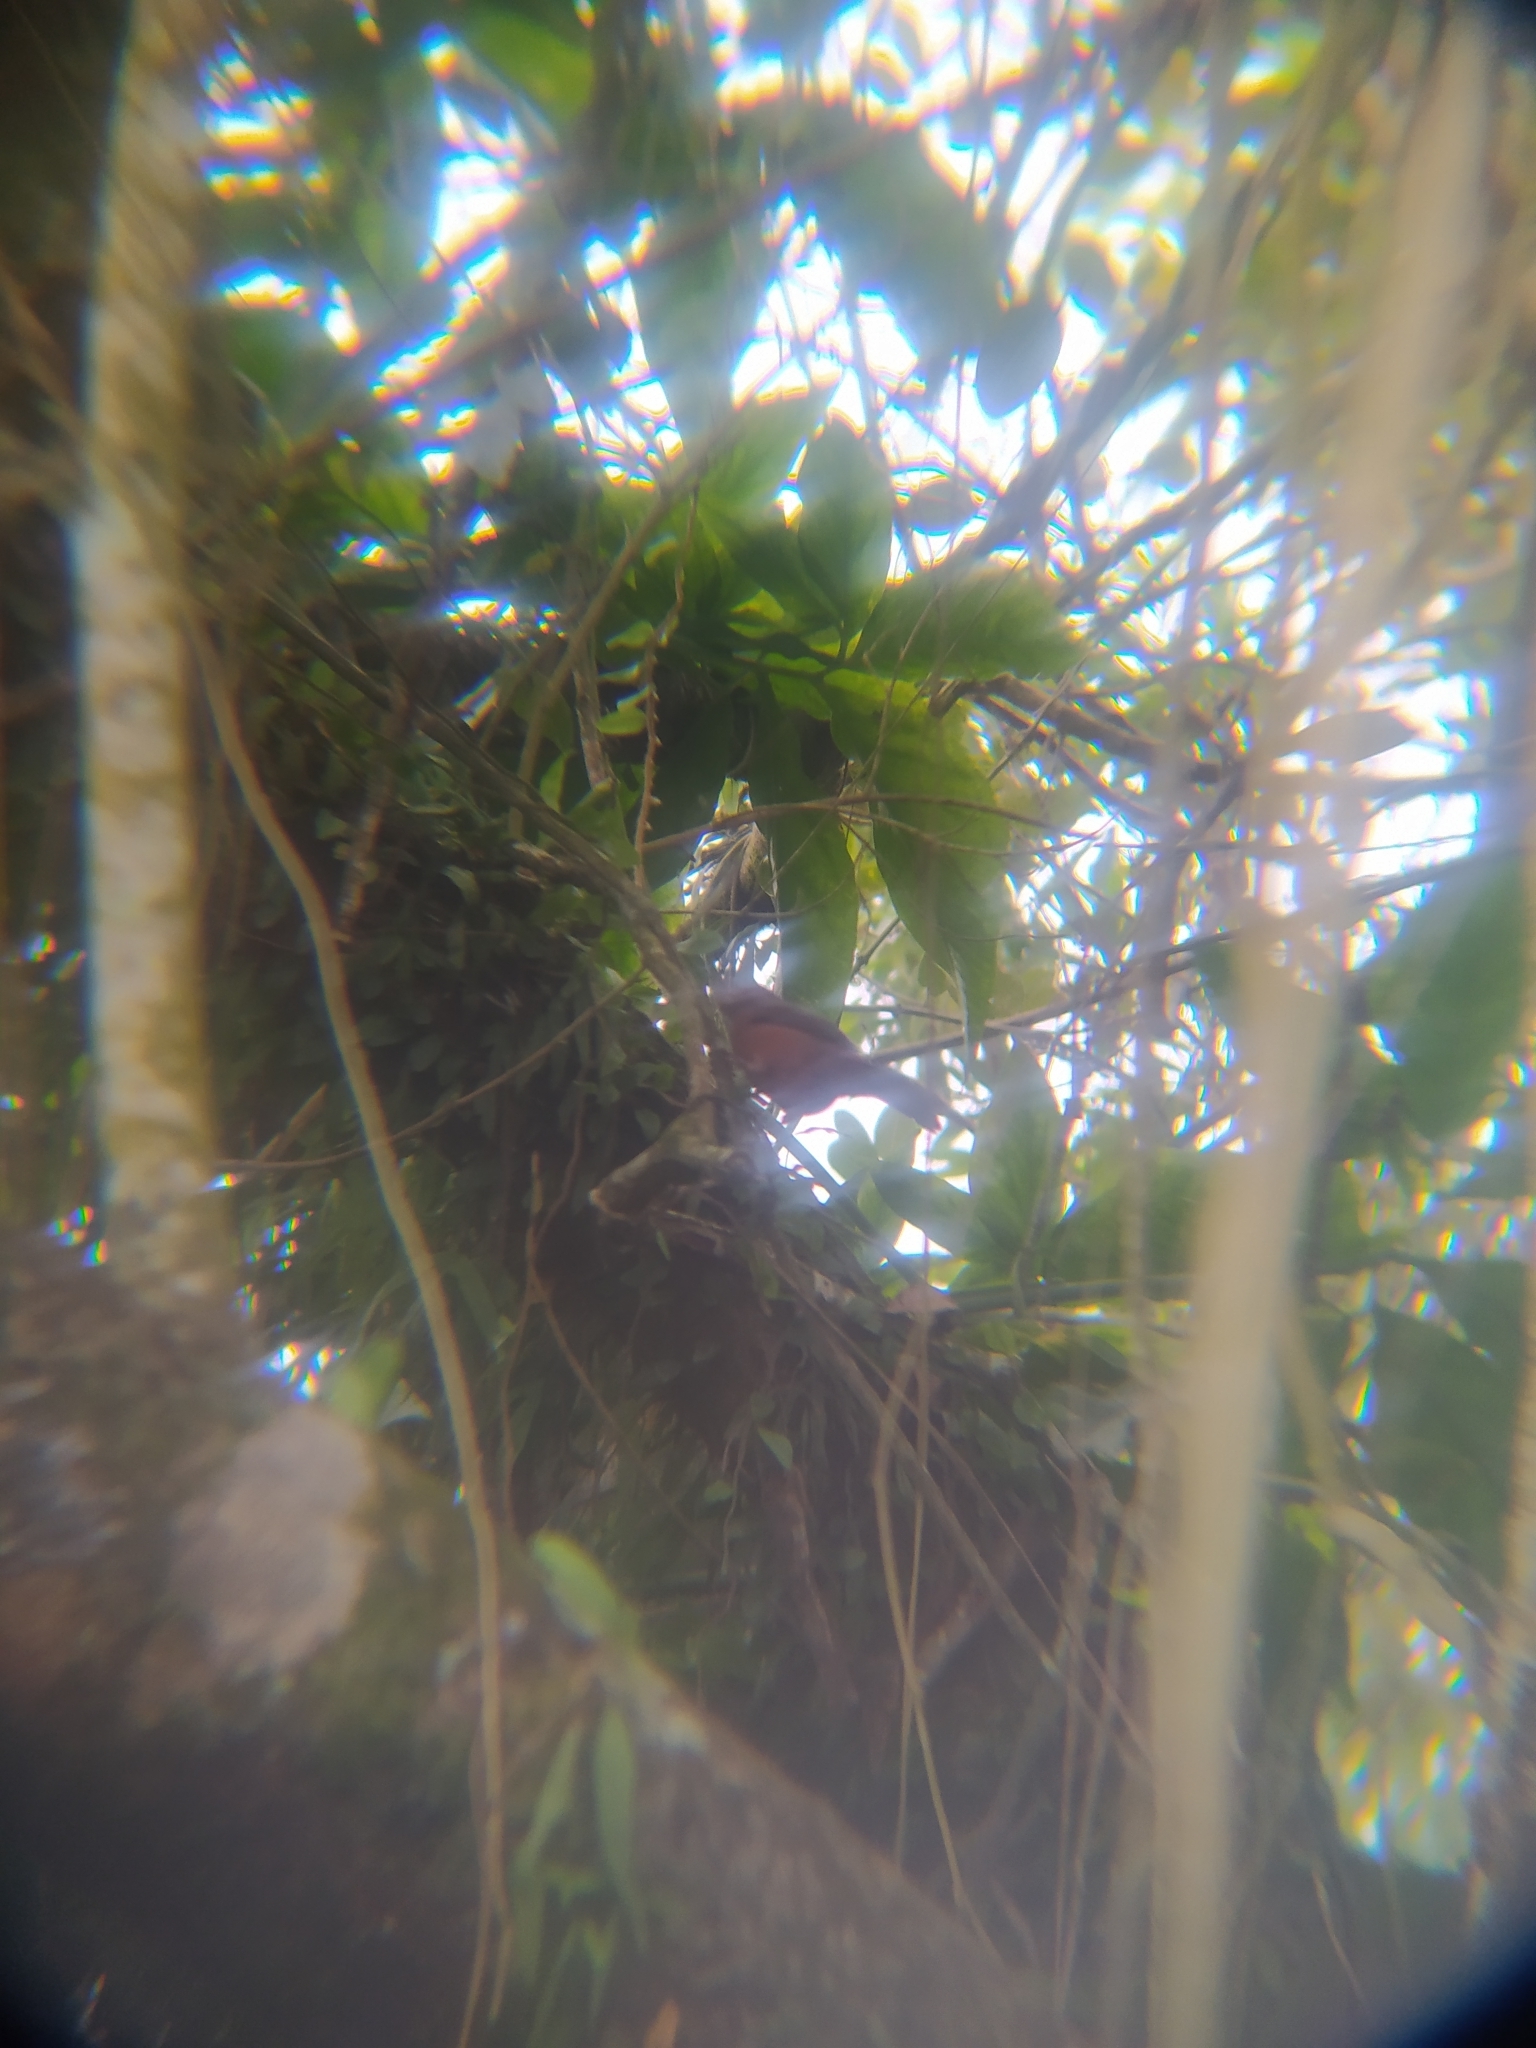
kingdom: Animalia
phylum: Chordata
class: Aves
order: Passeriformes
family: Turdidae
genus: Turdus
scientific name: Turdus rufiventris
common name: Rufous-bellied thrush
